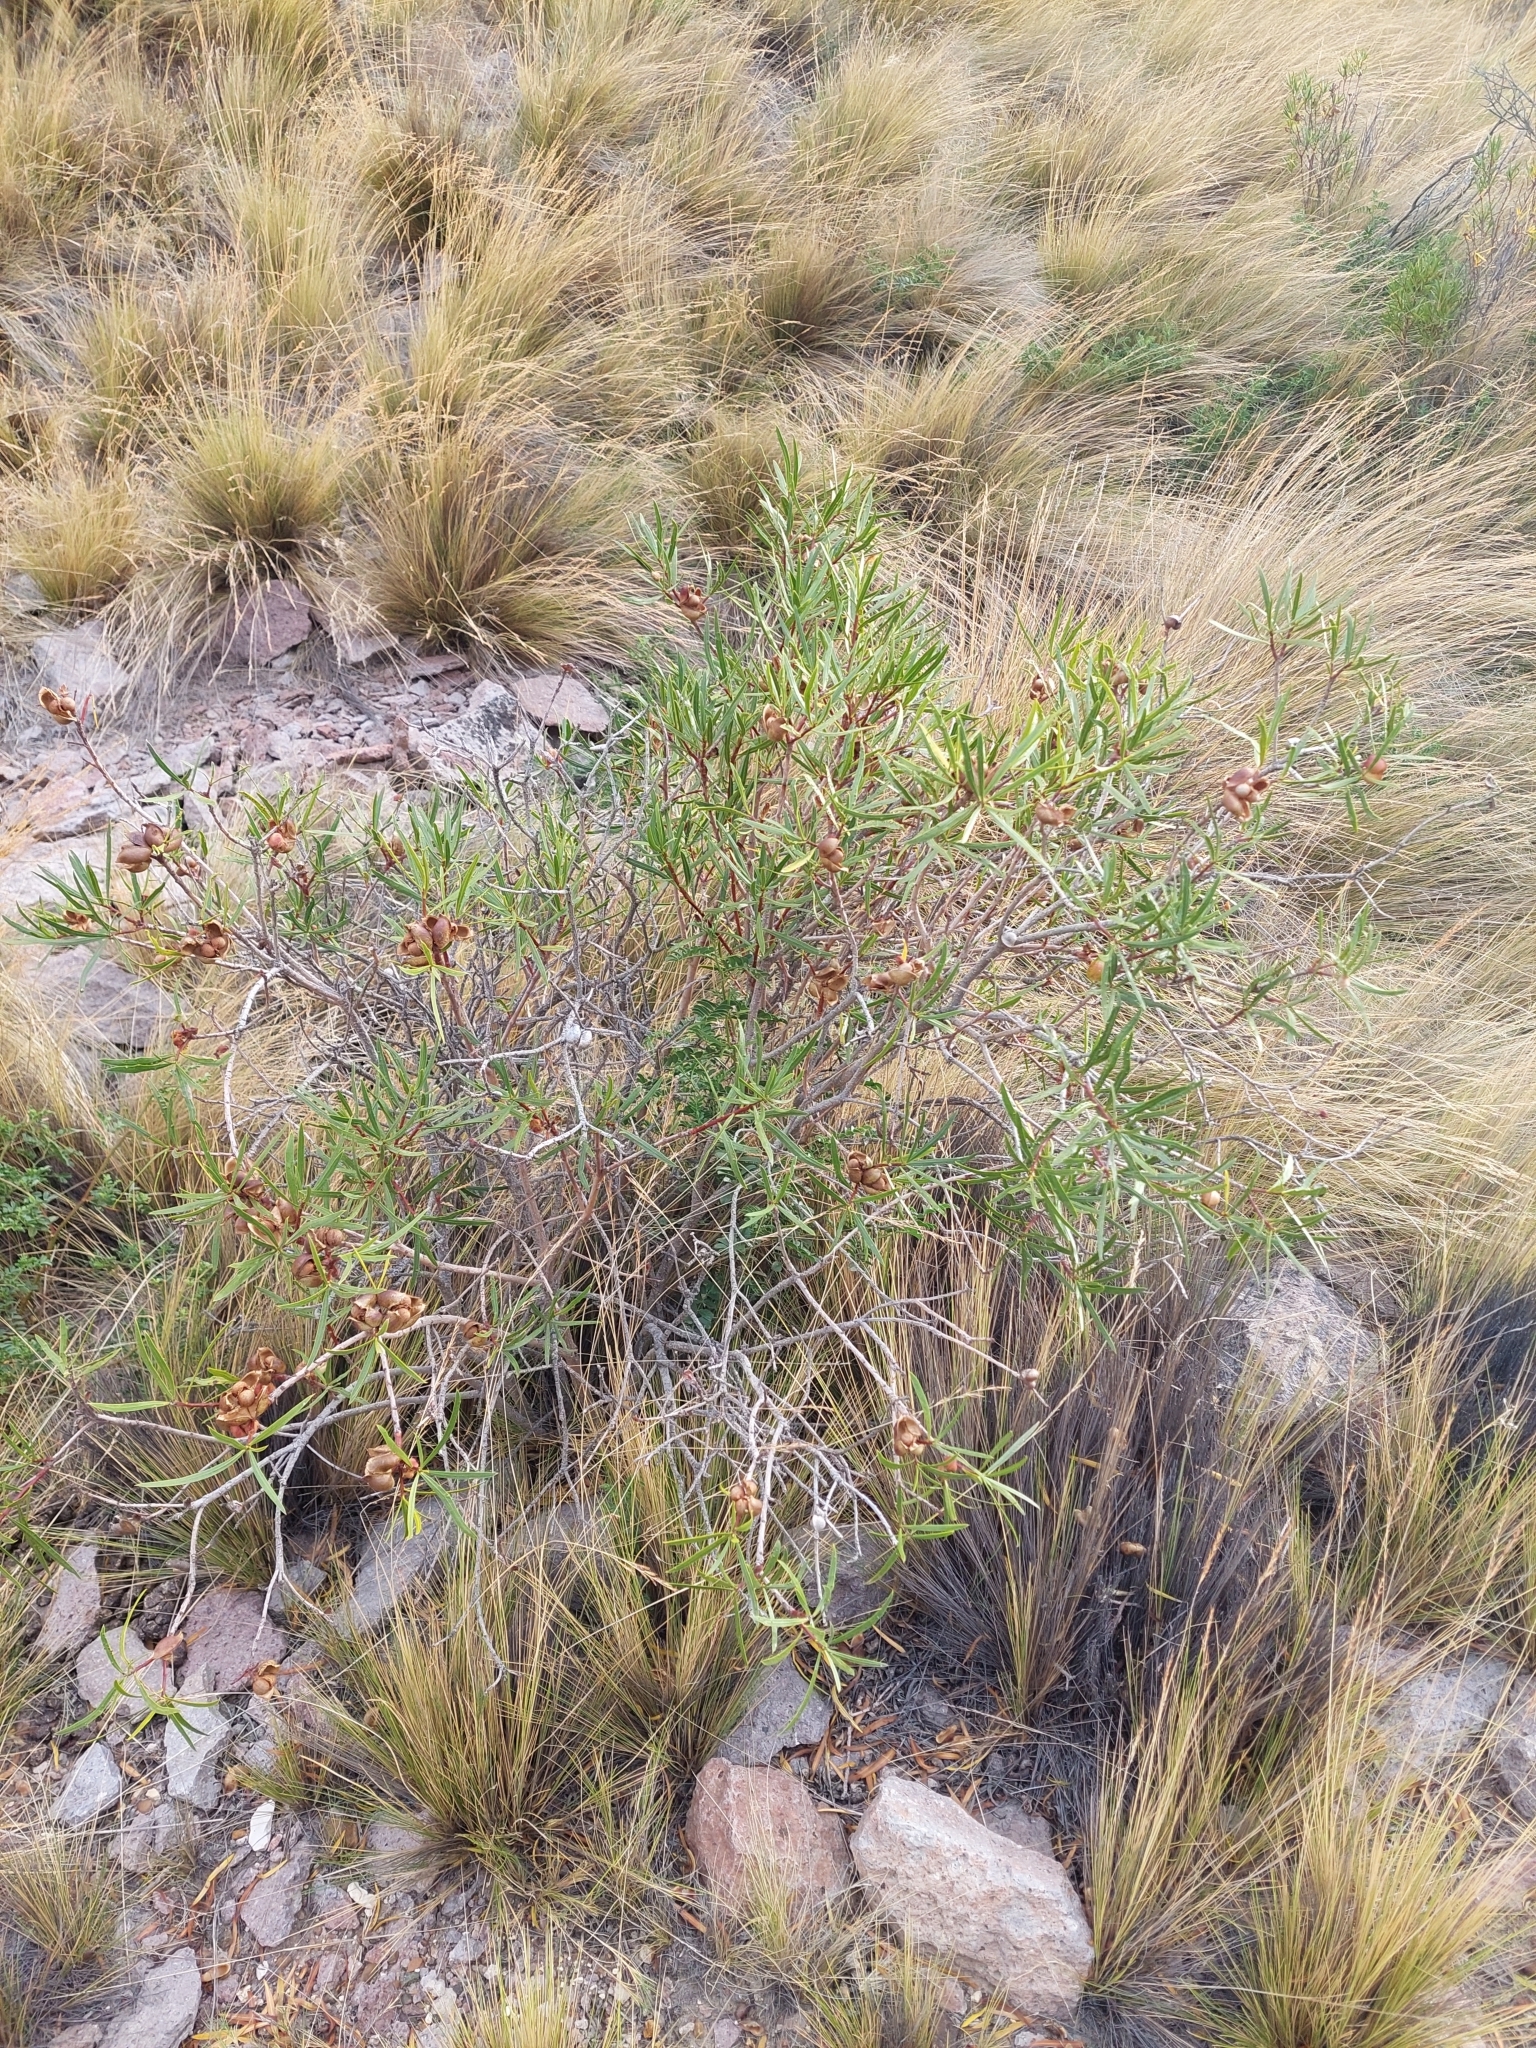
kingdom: Plantae
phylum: Tracheophyta
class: Magnoliopsida
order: Malpighiales
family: Euphorbiaceae
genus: Colliguaja
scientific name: Colliguaja integerrima
